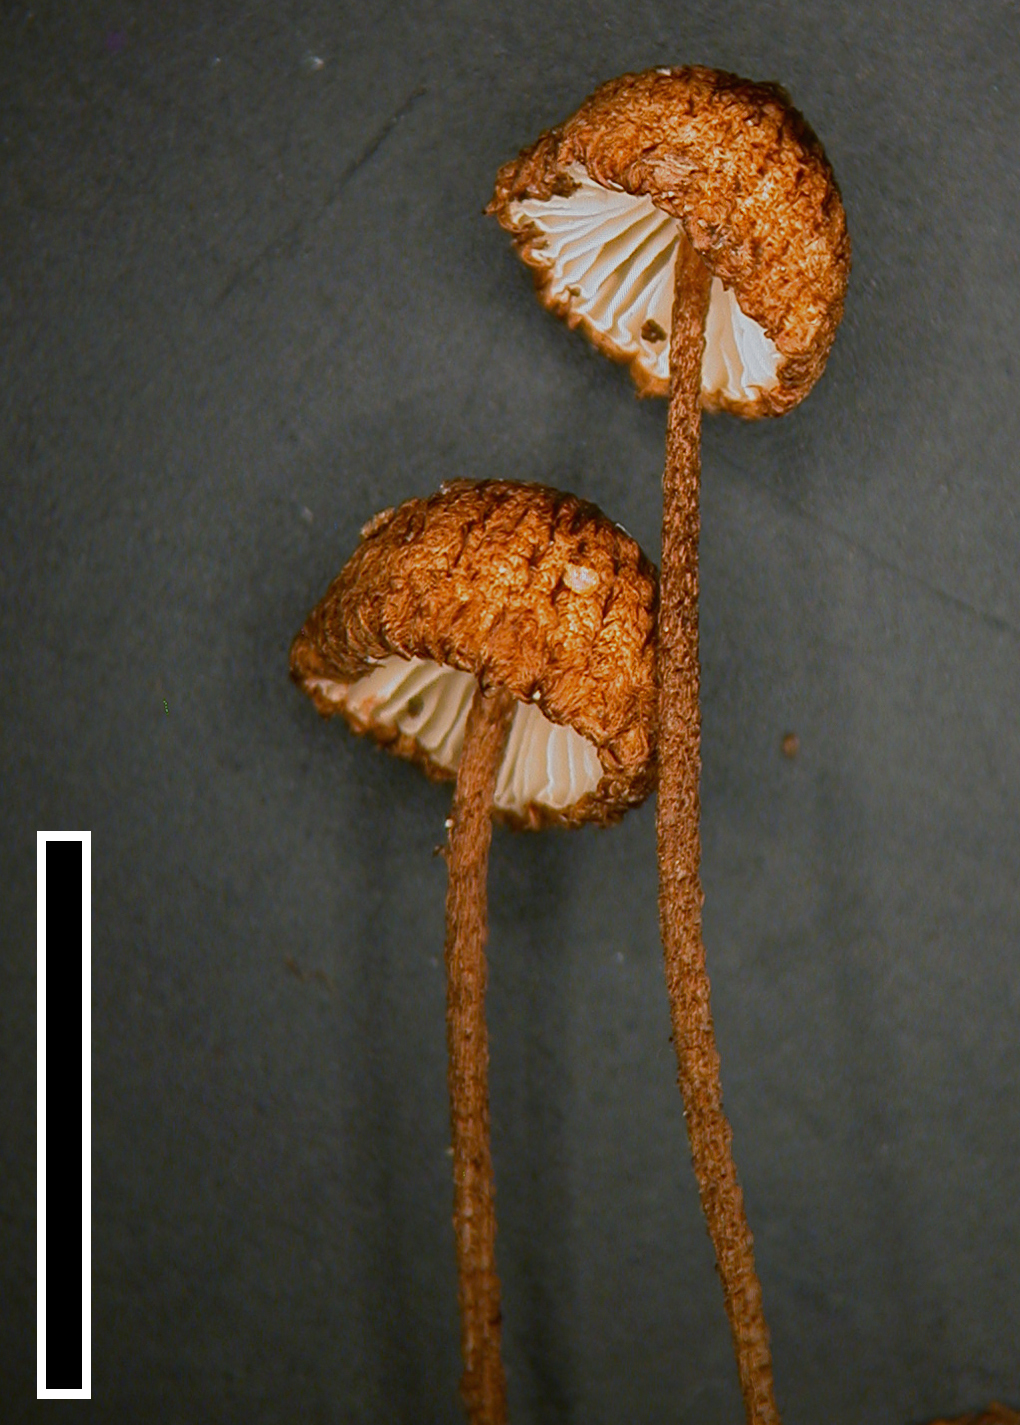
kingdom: Fungi
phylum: Basidiomycota
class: Agaricomycetes
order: Agaricales
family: Marasmiaceae
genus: Crinipellis
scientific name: Crinipellis procera
